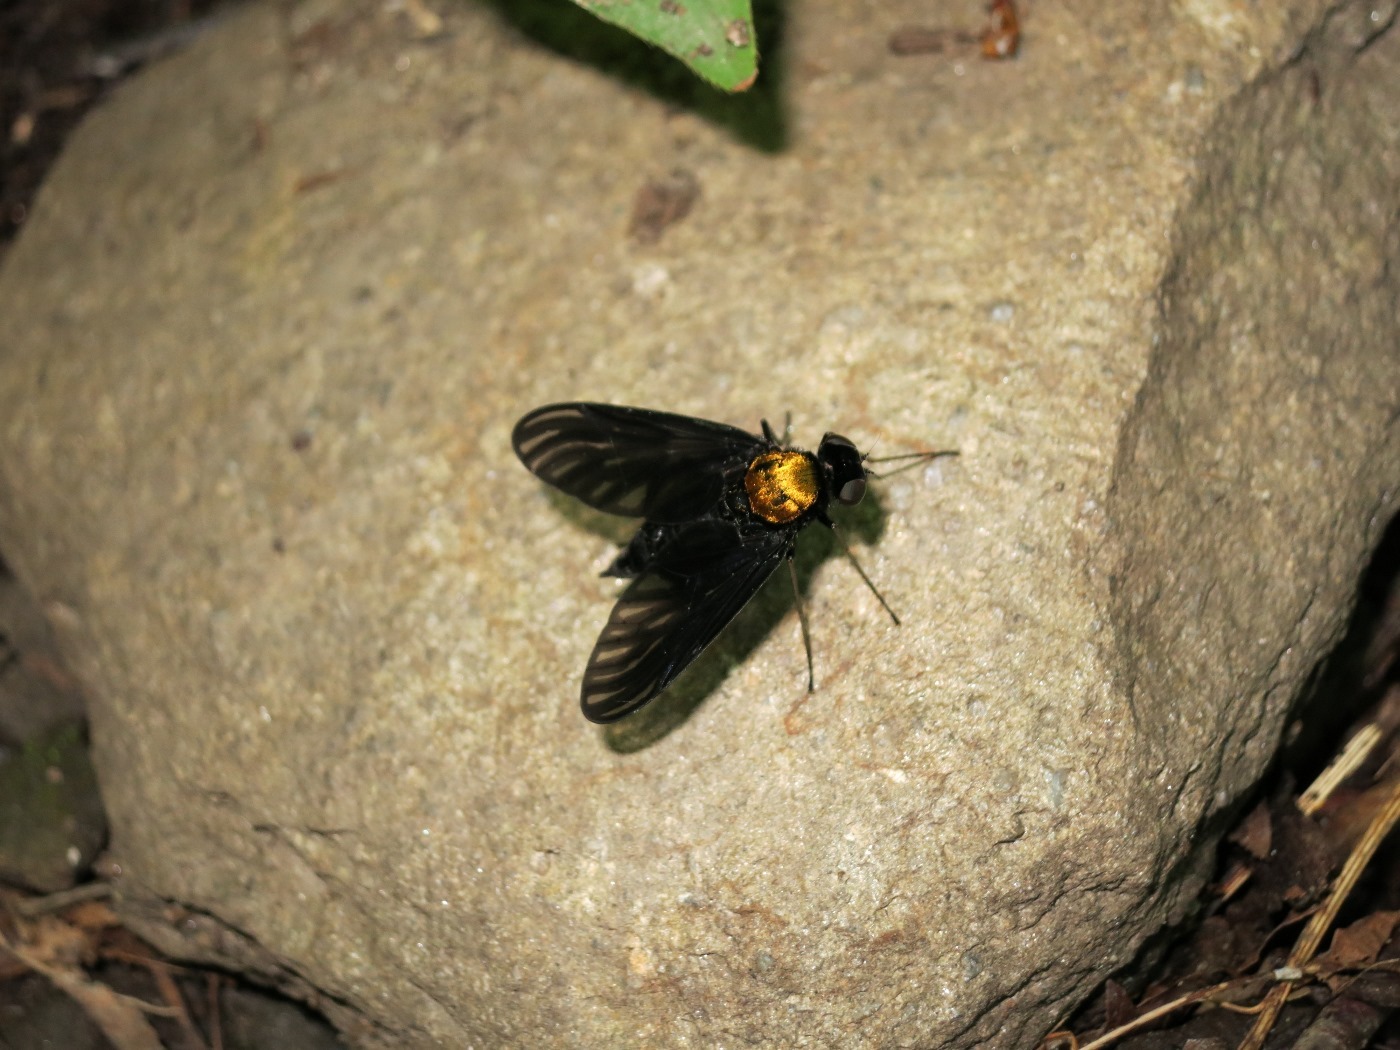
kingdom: Animalia
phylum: Arthropoda
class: Insecta
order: Diptera
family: Rhagionidae
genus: Chrysopilus
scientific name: Chrysopilus davisi
